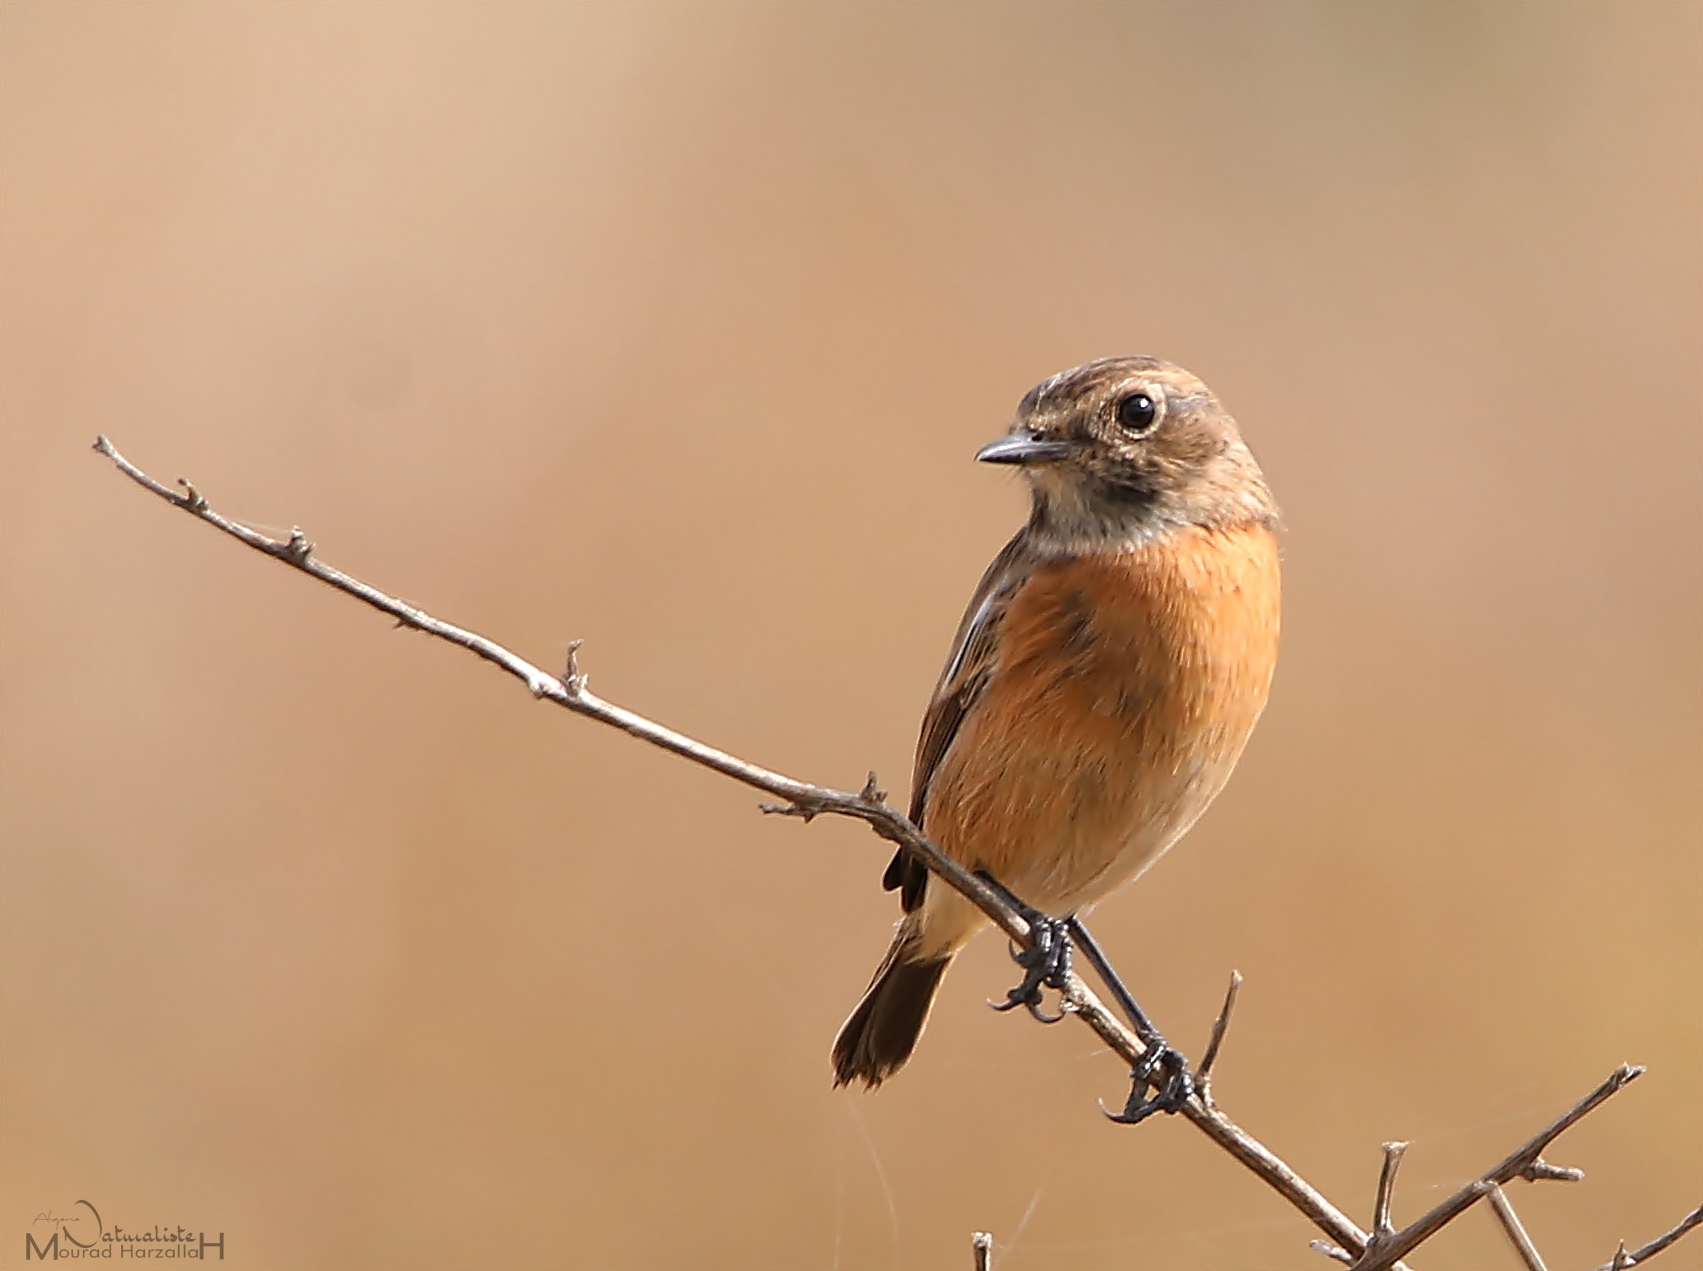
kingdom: Animalia
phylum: Chordata
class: Aves
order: Passeriformes
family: Muscicapidae
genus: Saxicola
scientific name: Saxicola rubicola
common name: European stonechat
